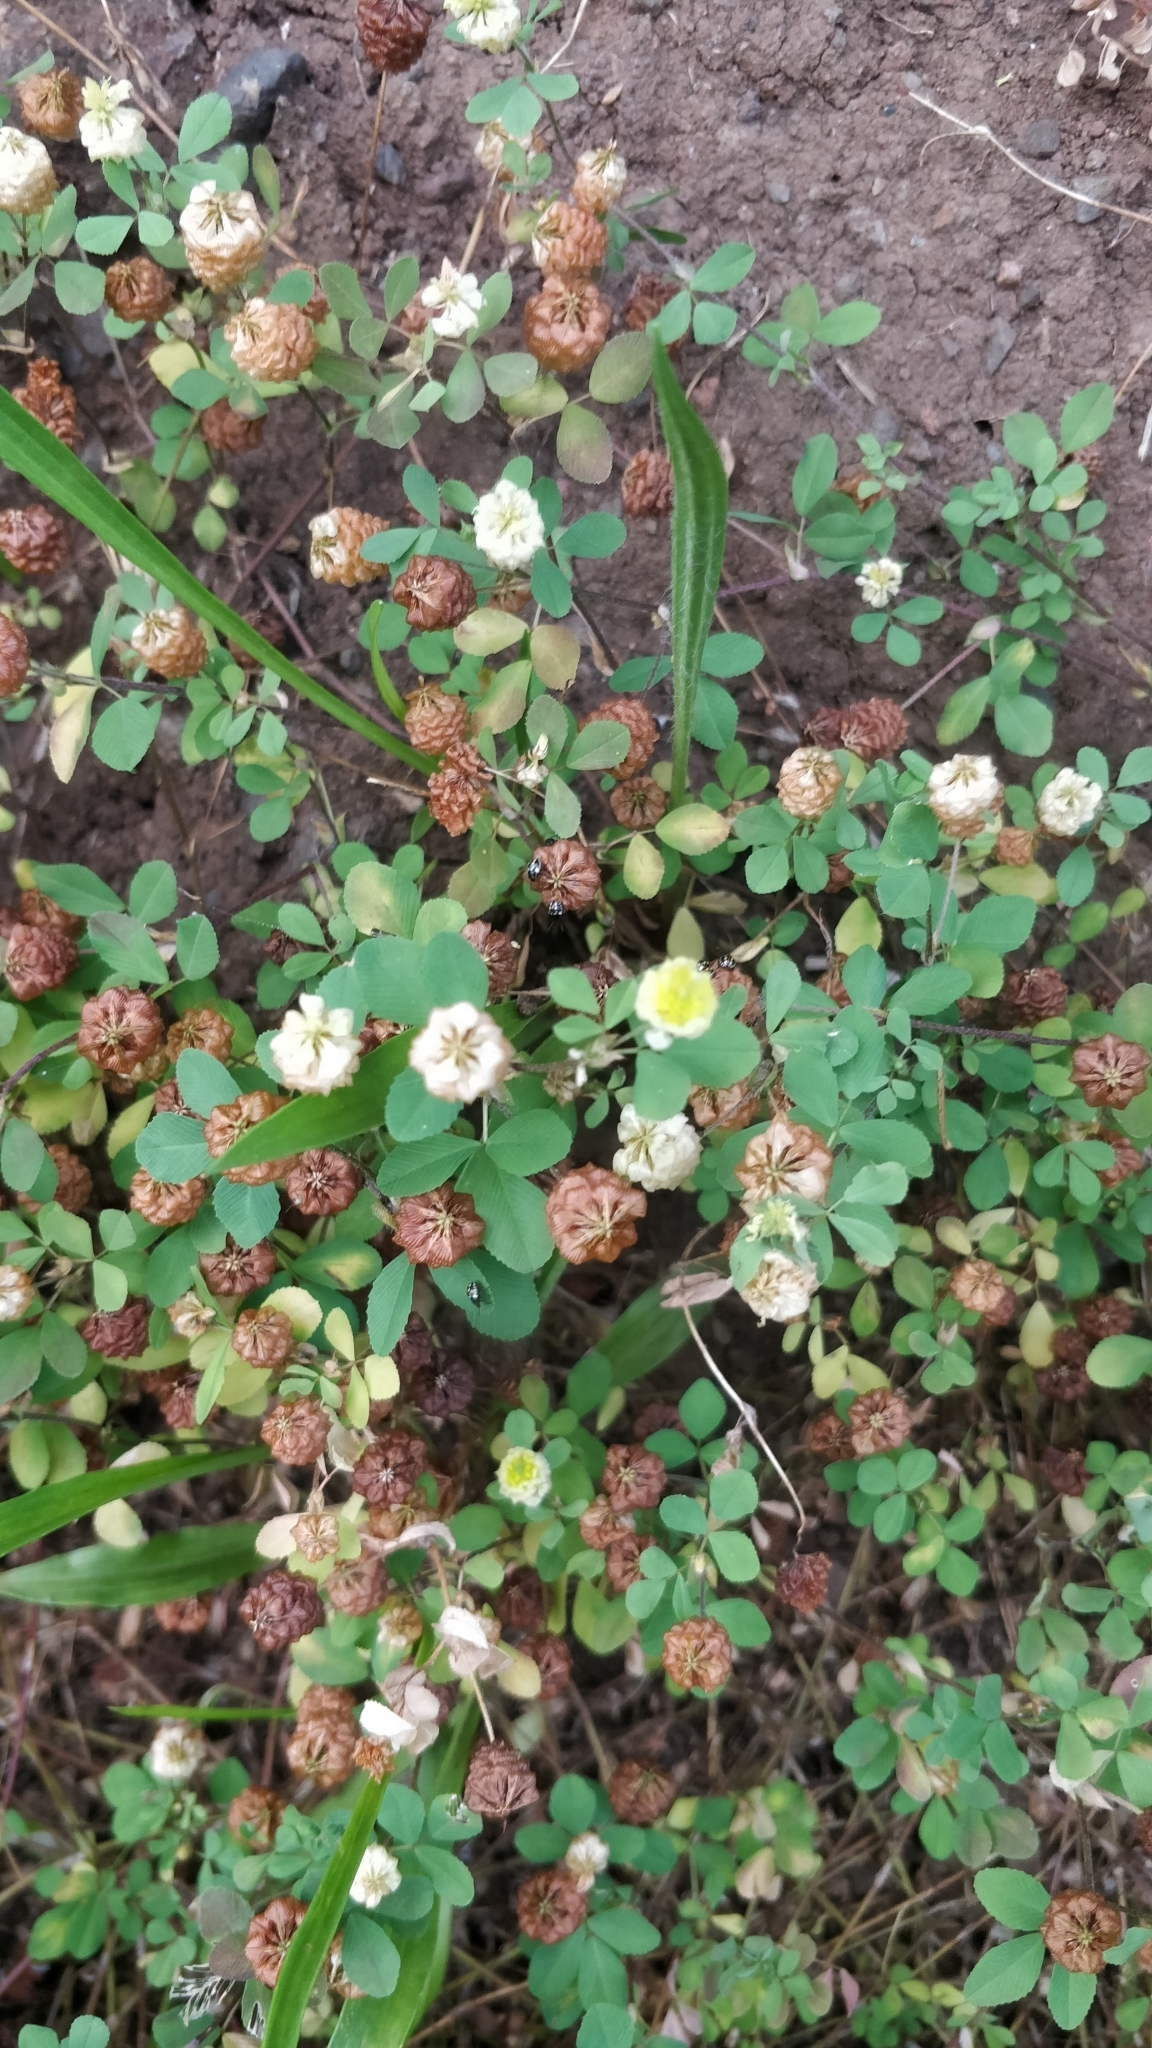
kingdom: Plantae
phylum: Tracheophyta
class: Magnoliopsida
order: Fabales
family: Fabaceae
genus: Trifolium
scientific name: Trifolium campestre
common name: Field clover
